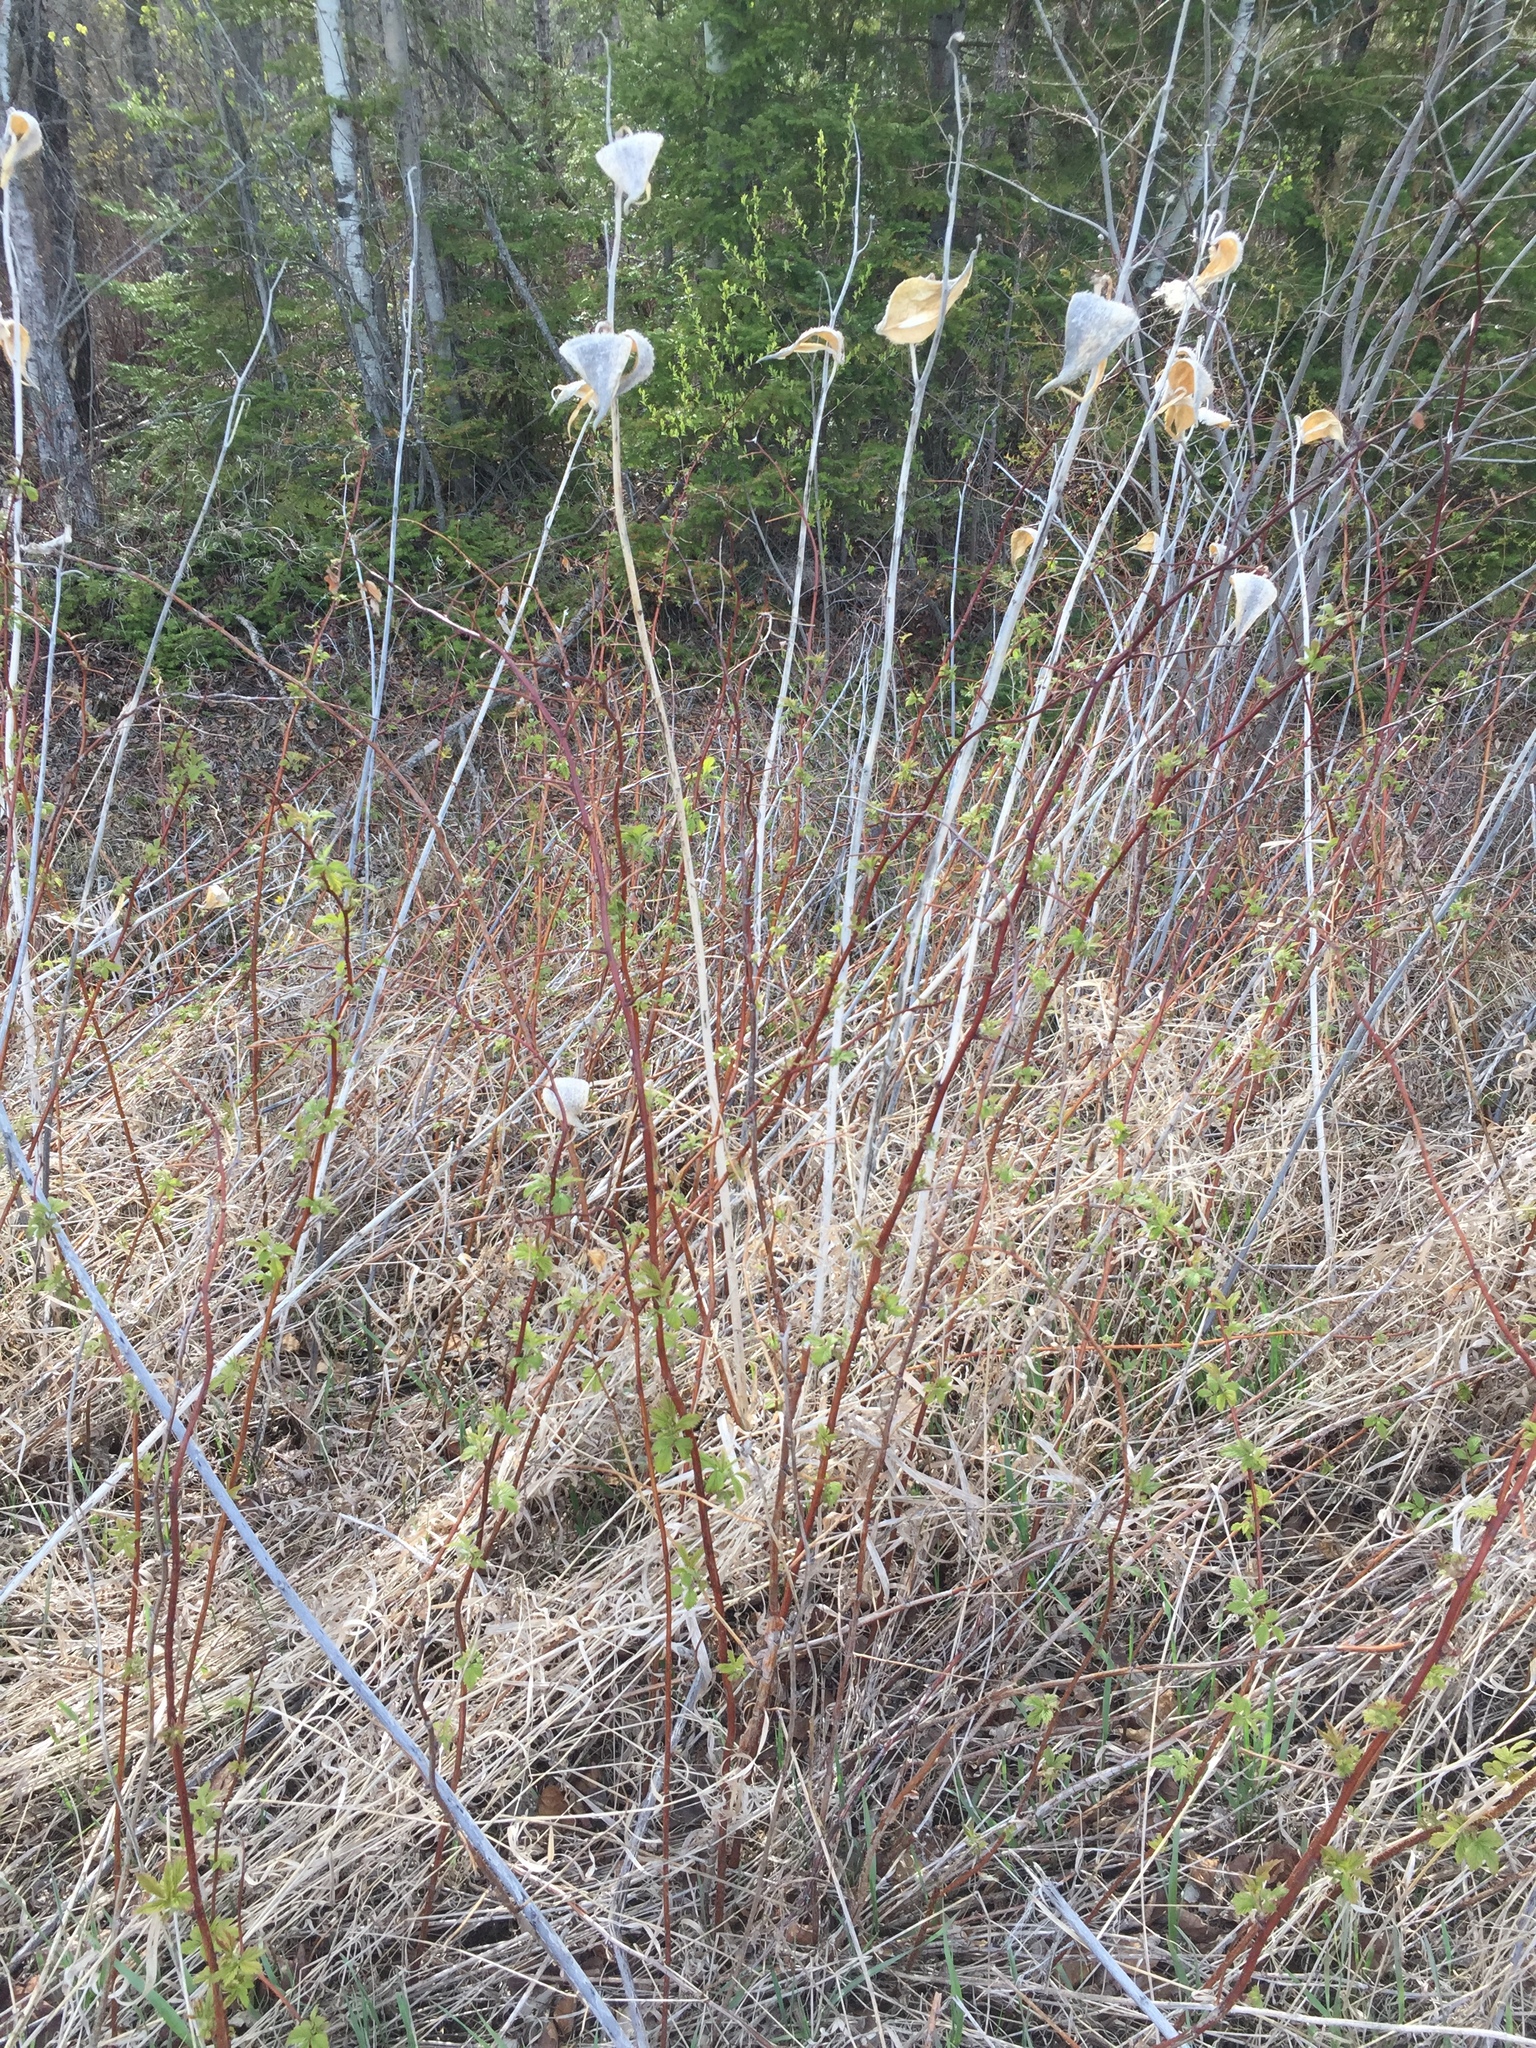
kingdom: Plantae
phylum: Tracheophyta
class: Magnoliopsida
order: Gentianales
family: Apocynaceae
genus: Asclepias
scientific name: Asclepias syriaca
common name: Common milkweed
